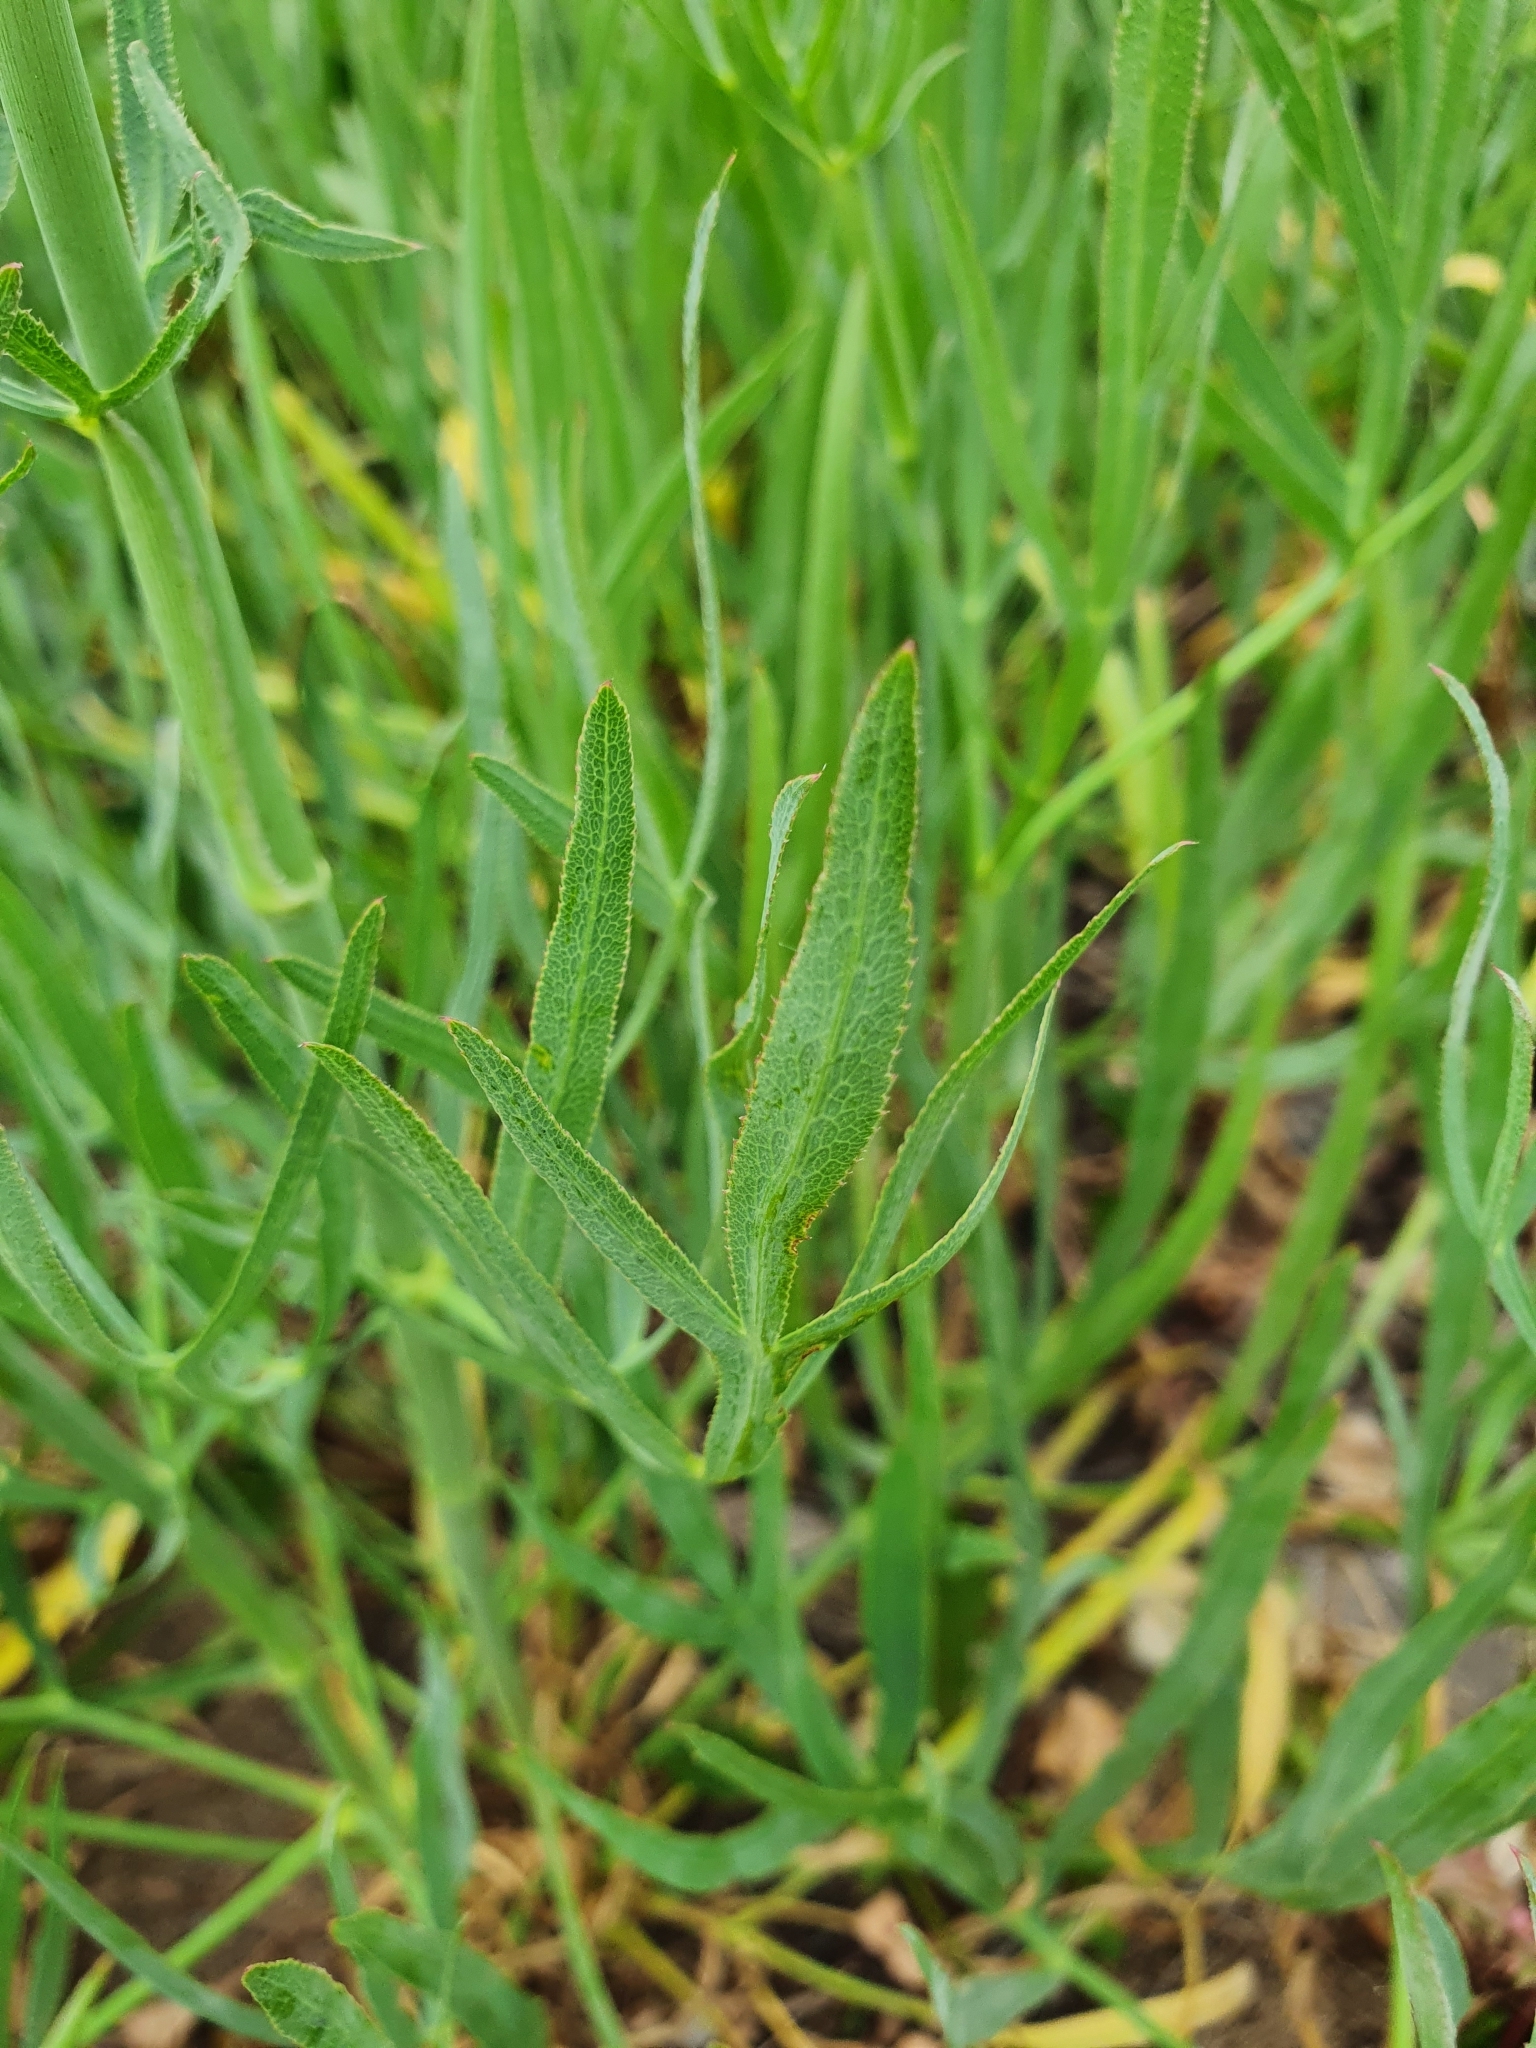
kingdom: Plantae
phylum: Tracheophyta
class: Magnoliopsida
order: Apiales
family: Apiaceae
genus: Falcaria
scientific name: Falcaria vulgaris
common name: Longleaf
